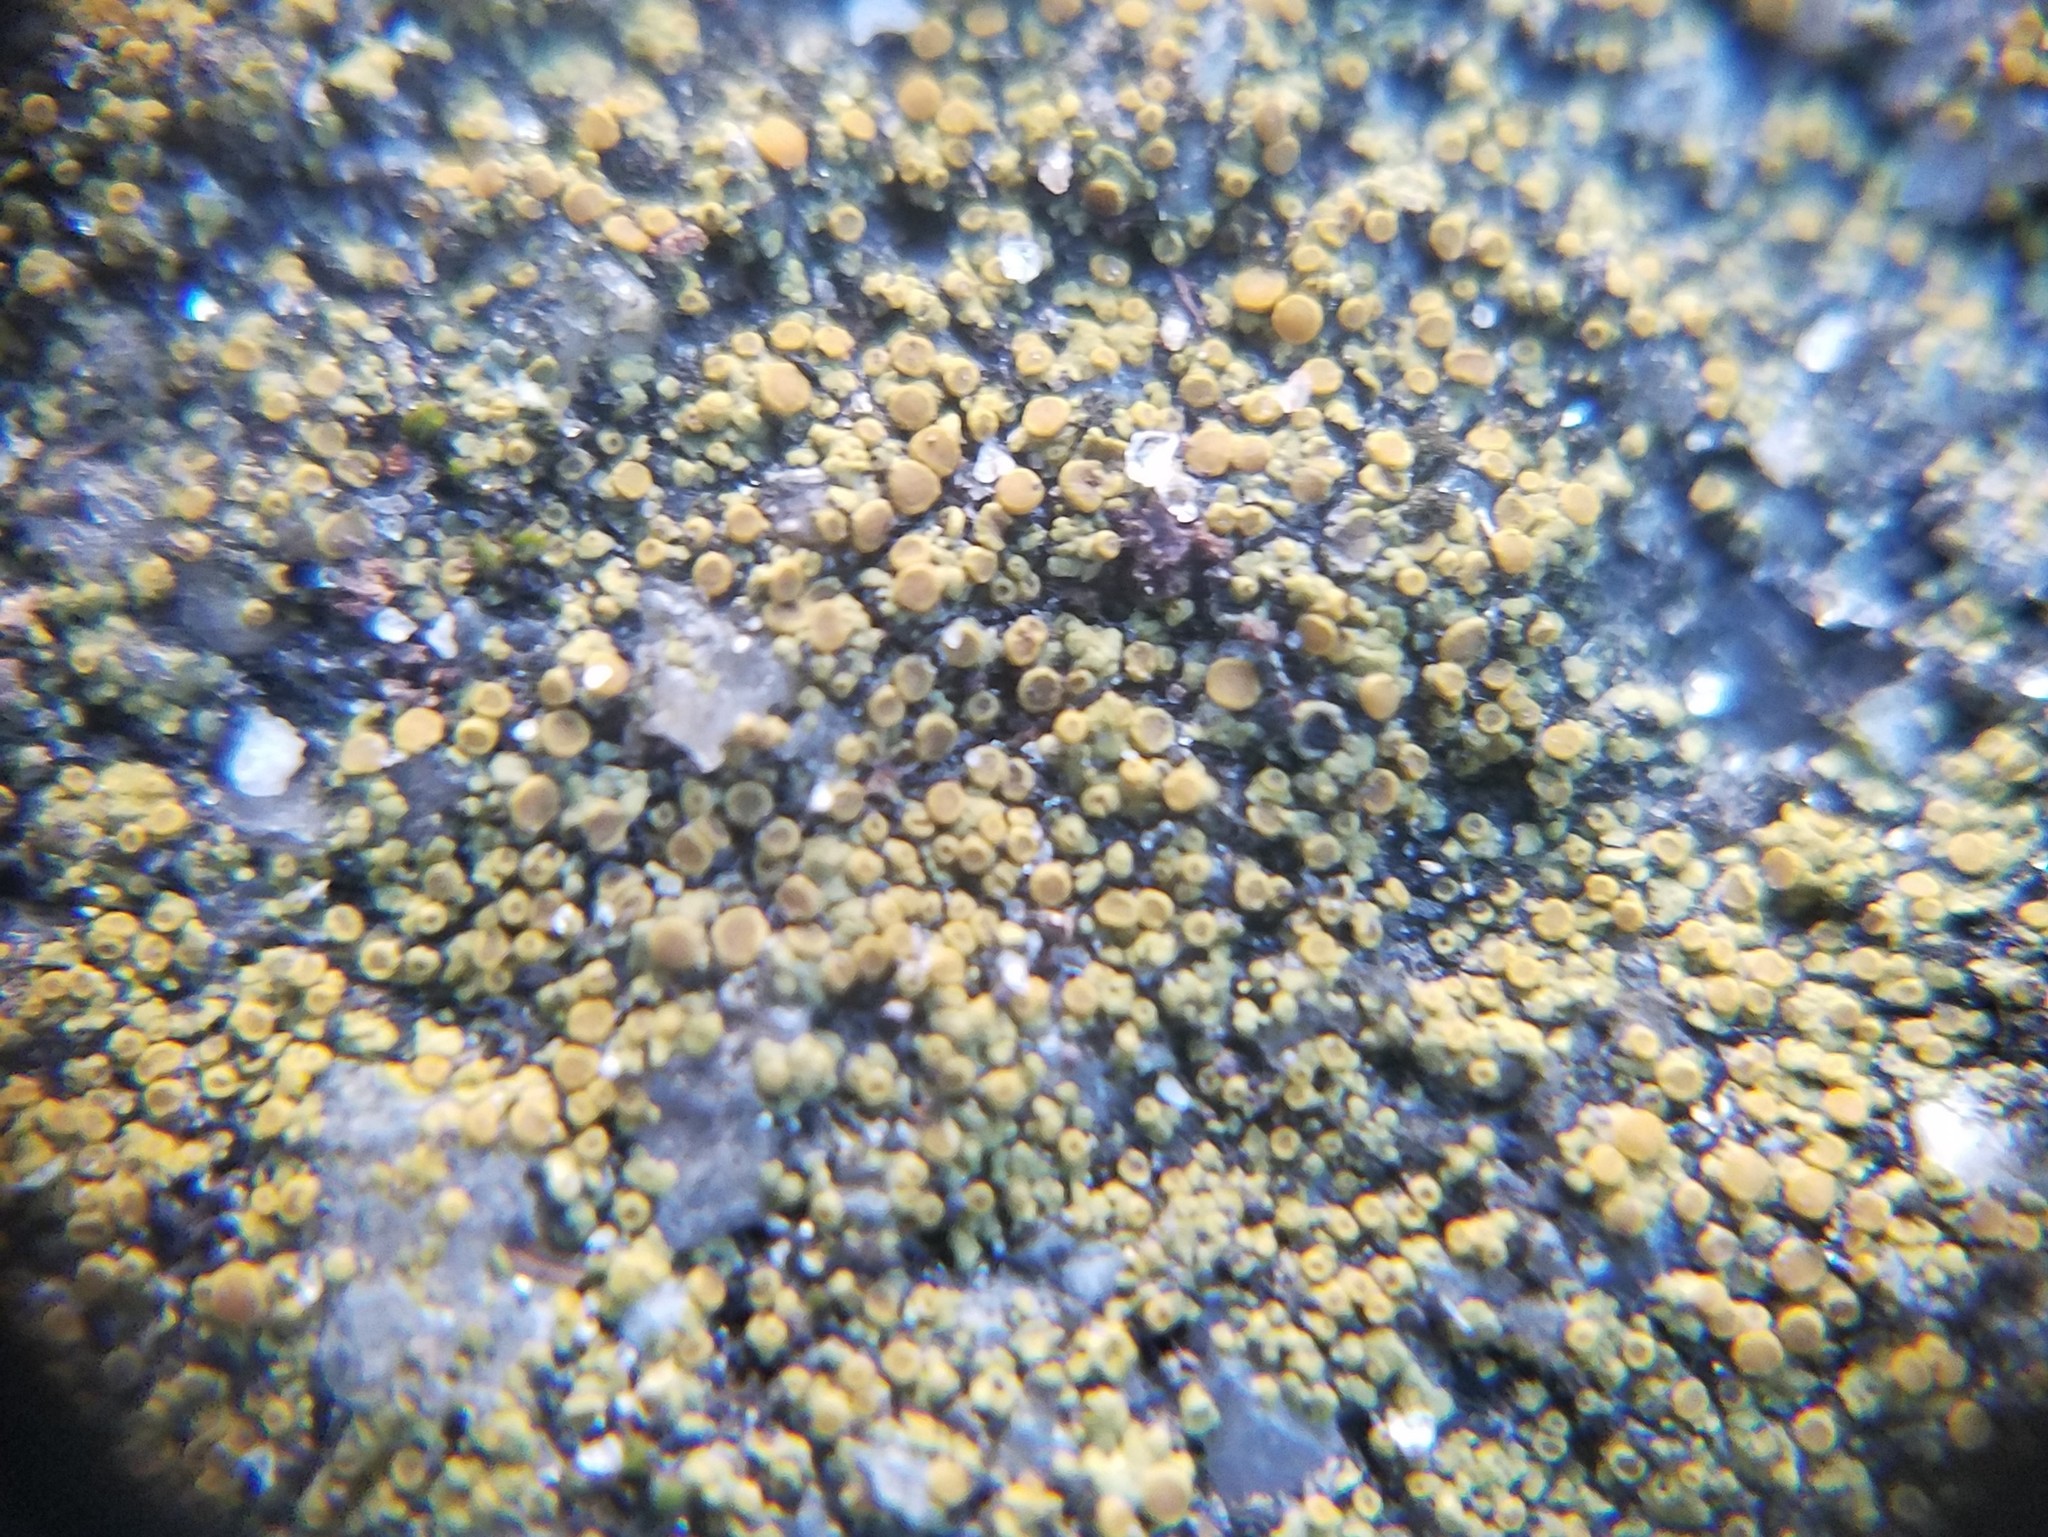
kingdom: Fungi
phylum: Ascomycota
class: Lecanoromycetes
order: Teloschistales
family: Teloschistaceae
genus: Xanthocarpia
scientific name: Xanthocarpia feracissima
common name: Sidewalk firedot
